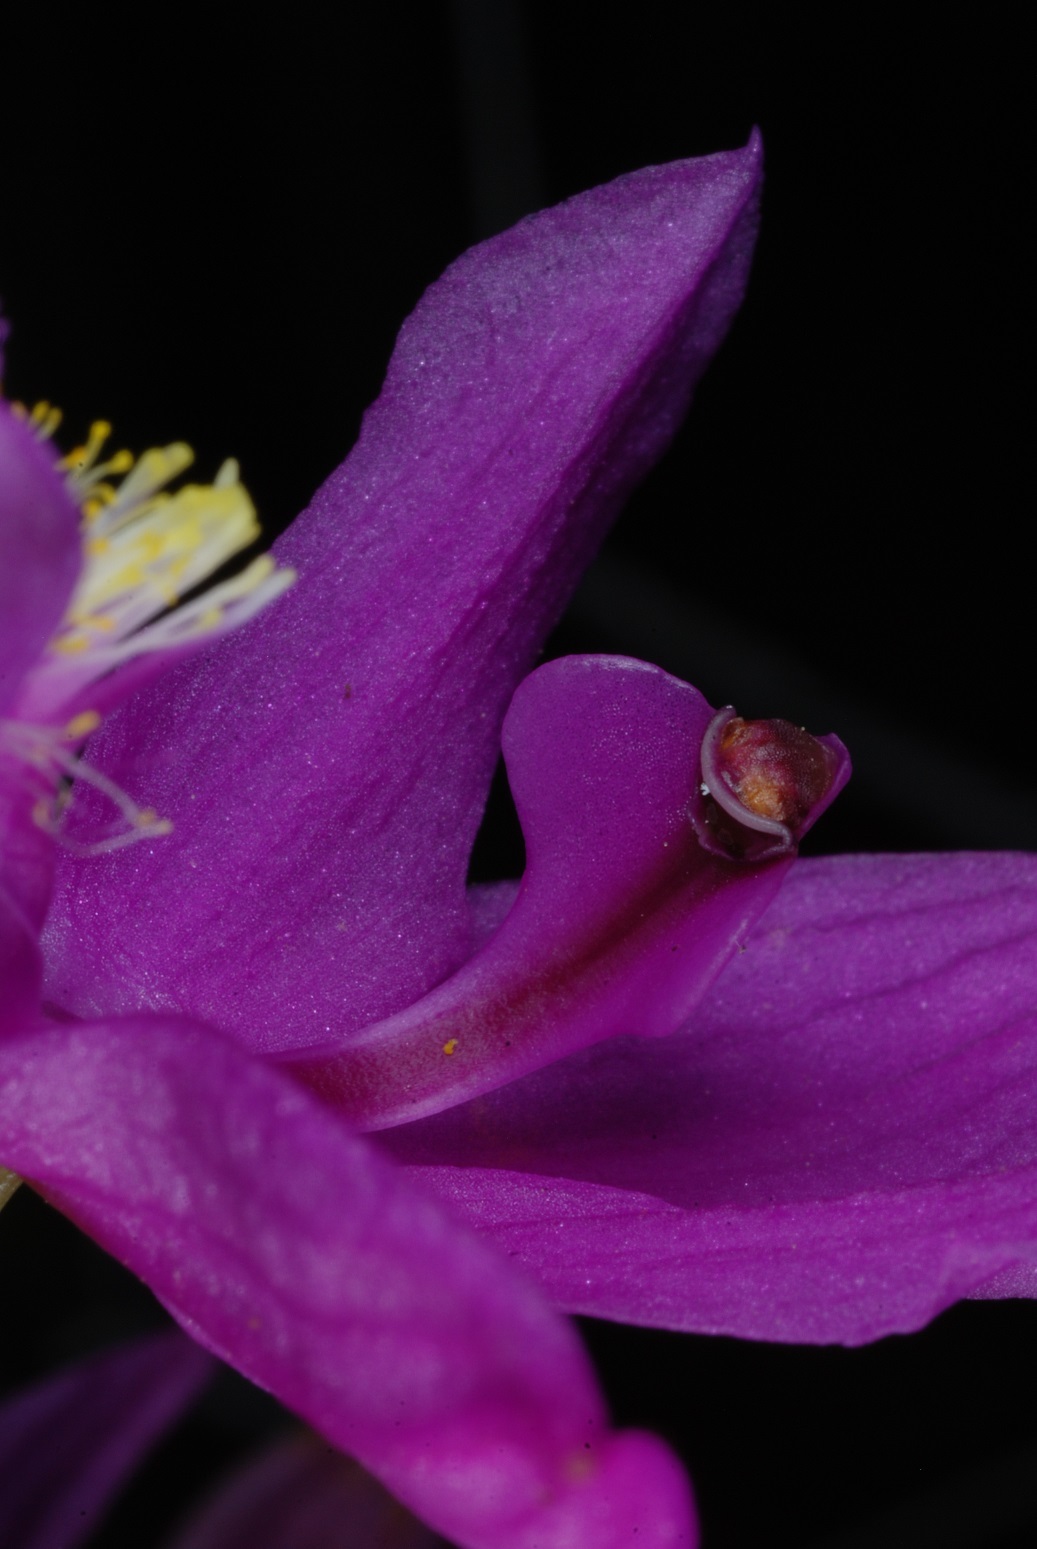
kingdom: Plantae
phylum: Tracheophyta
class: Liliopsida
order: Asparagales
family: Orchidaceae
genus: Calopogon
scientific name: Calopogon tuberosus
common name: Grass-pink
